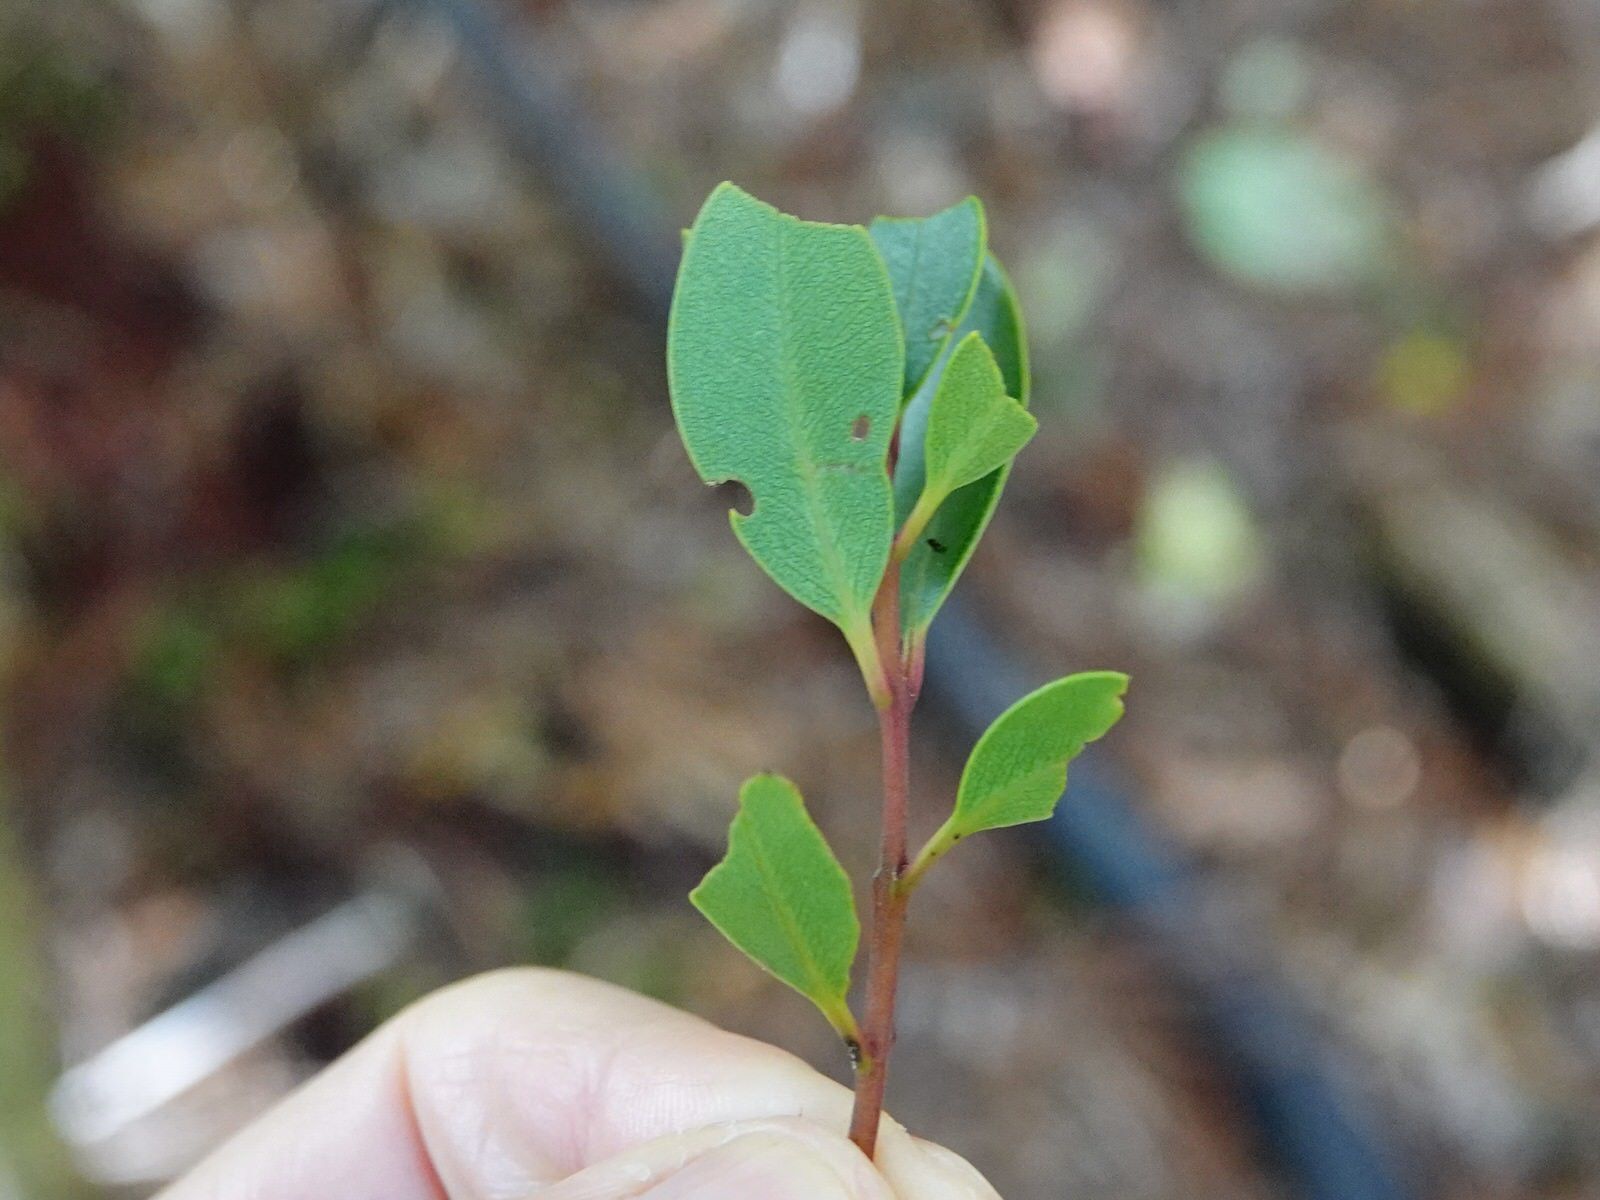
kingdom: Plantae
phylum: Tracheophyta
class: Magnoliopsida
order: Myrtales
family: Myrtaceae
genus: Metrosideros
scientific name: Metrosideros robusta
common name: Northern rata
